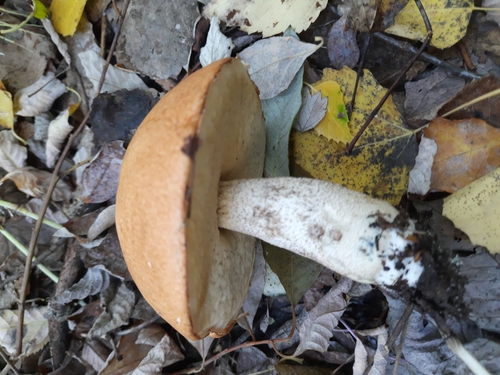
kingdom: Fungi
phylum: Basidiomycota
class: Agaricomycetes
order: Boletales
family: Boletaceae
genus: Leccinum
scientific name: Leccinum albostipitatum
